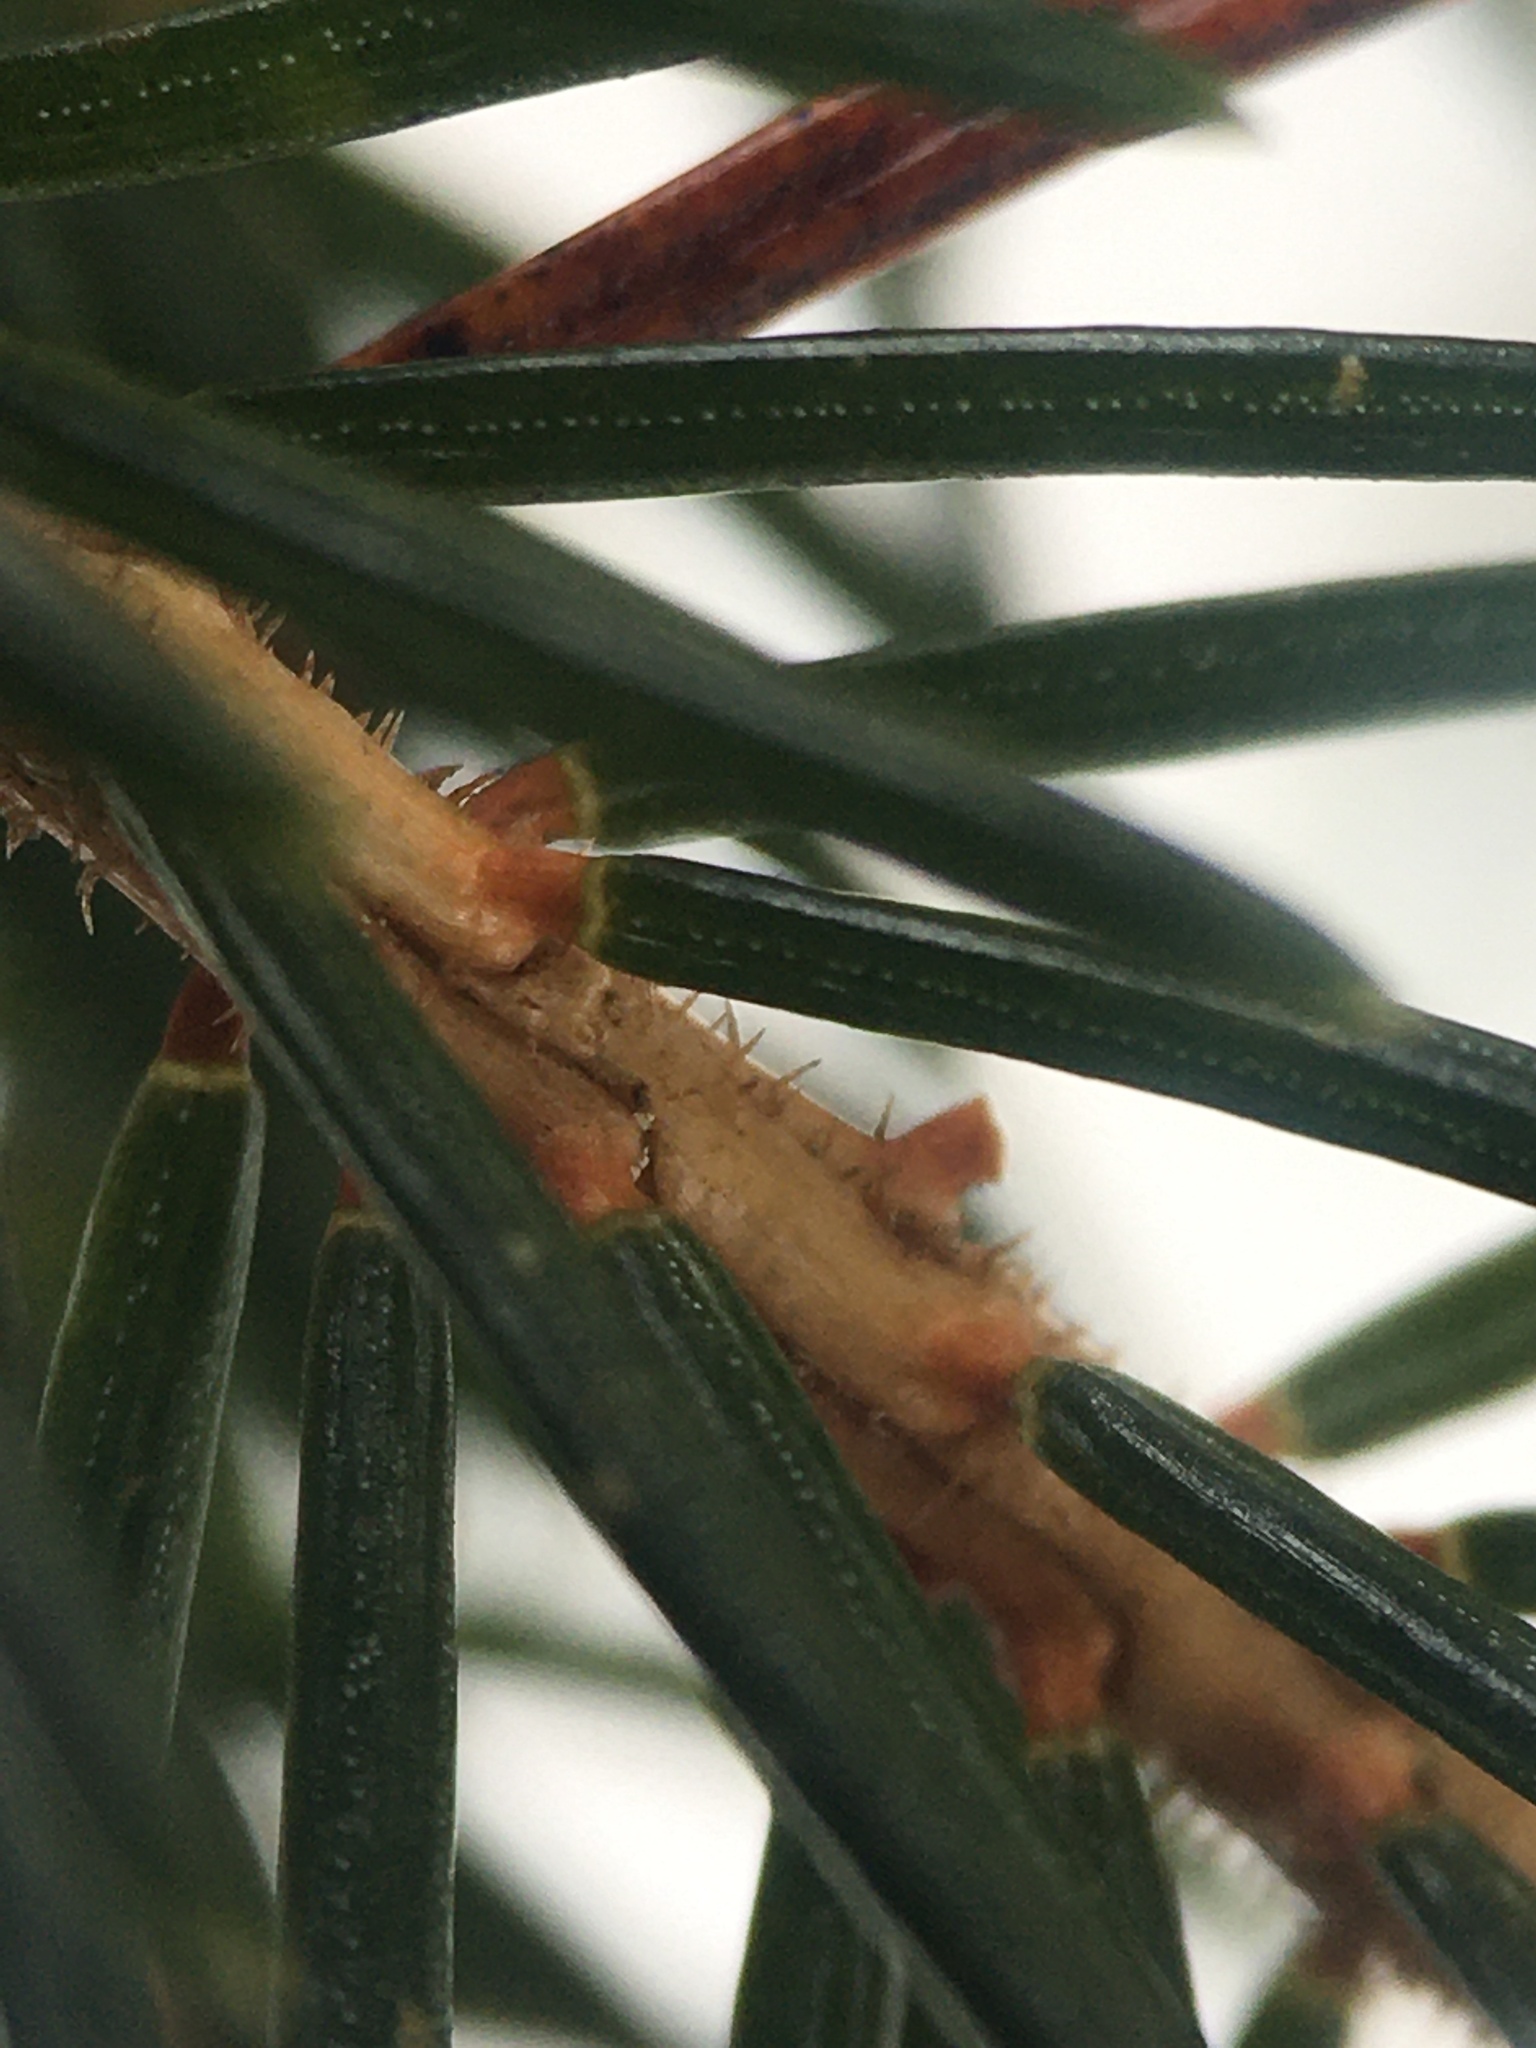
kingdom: Plantae
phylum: Tracheophyta
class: Pinopsida
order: Pinales
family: Pinaceae
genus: Picea
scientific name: Picea rubens
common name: Red spruce
